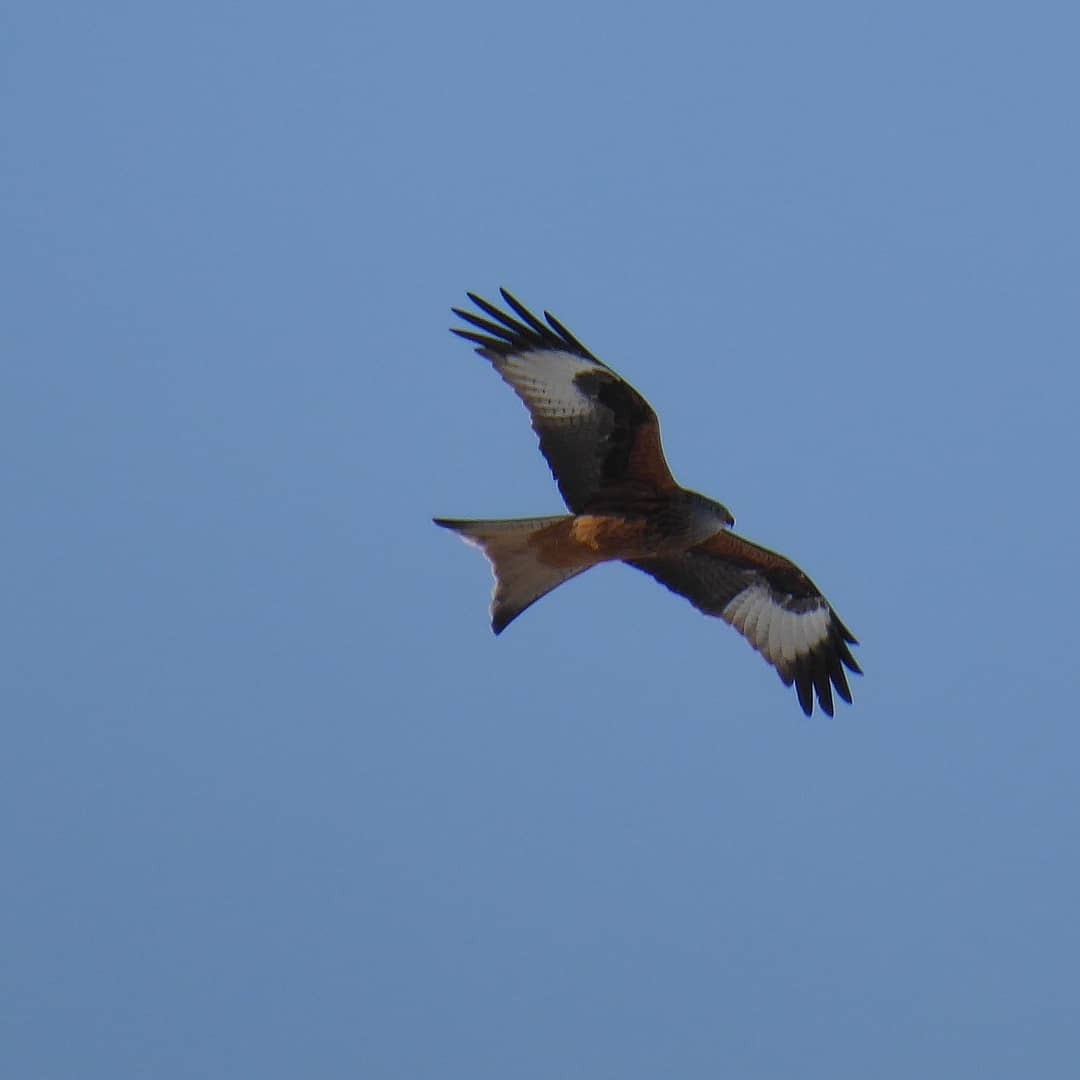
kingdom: Animalia
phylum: Chordata
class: Aves
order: Accipitriformes
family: Accipitridae
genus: Milvus
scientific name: Milvus milvus
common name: Red kite
